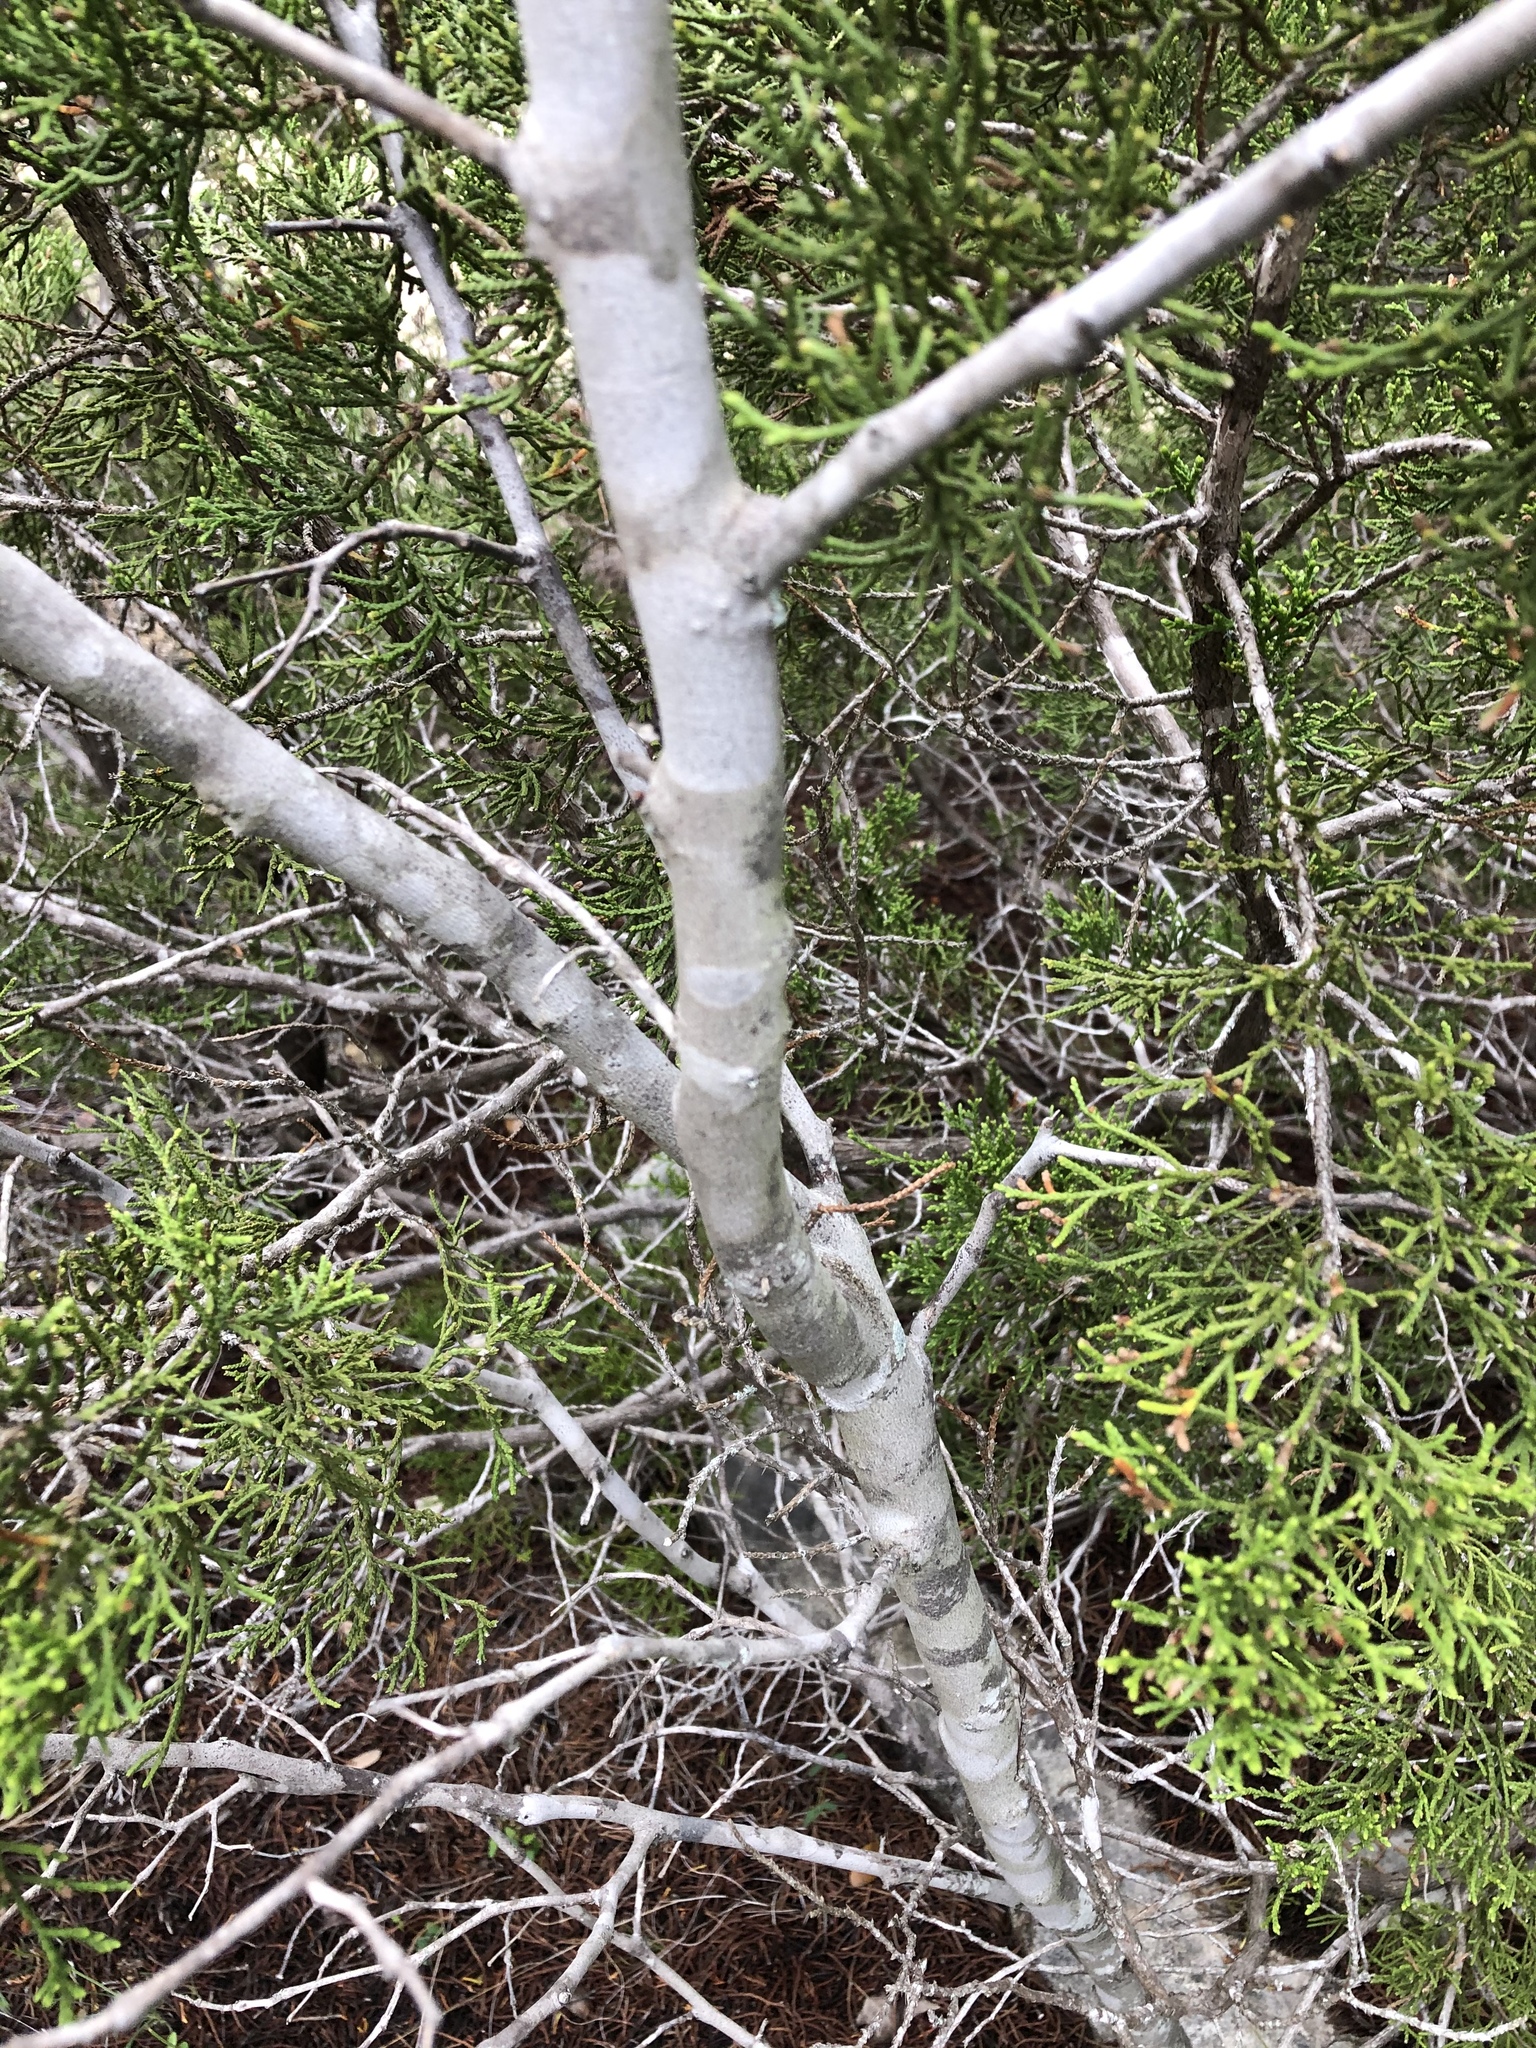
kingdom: Plantae
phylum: Tracheophyta
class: Magnoliopsida
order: Fabales
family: Fabaceae
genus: Cercis
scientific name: Cercis canadensis
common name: Eastern redbud
